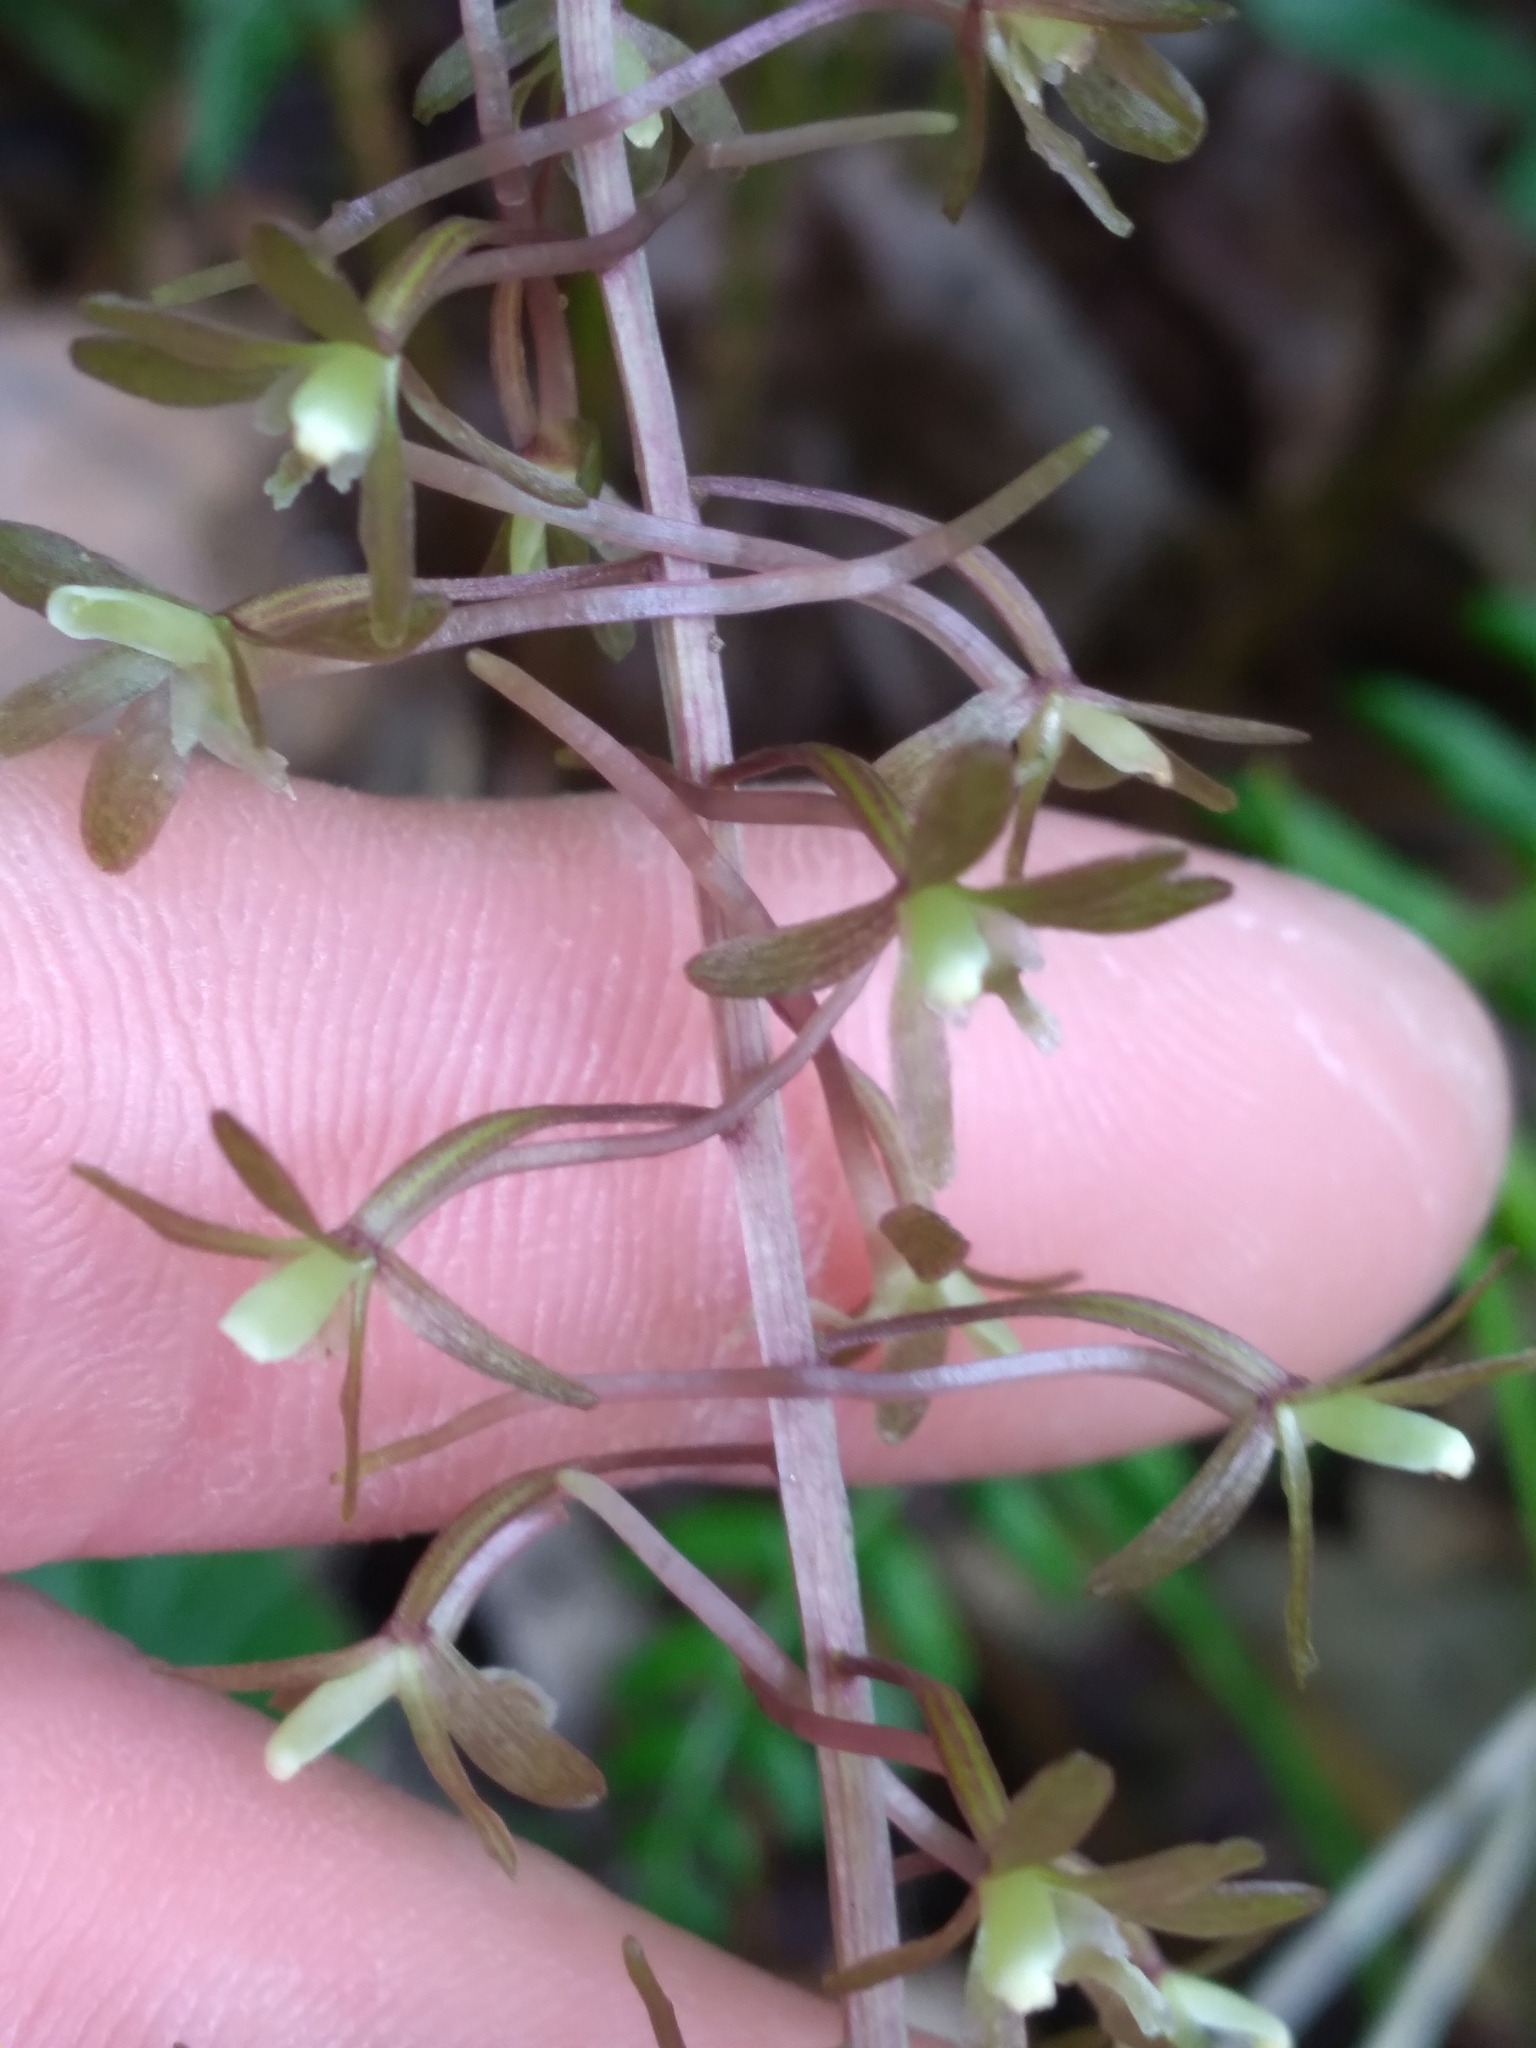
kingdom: Plantae
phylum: Tracheophyta
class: Liliopsida
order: Asparagales
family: Orchidaceae
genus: Tipularia
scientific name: Tipularia discolor
